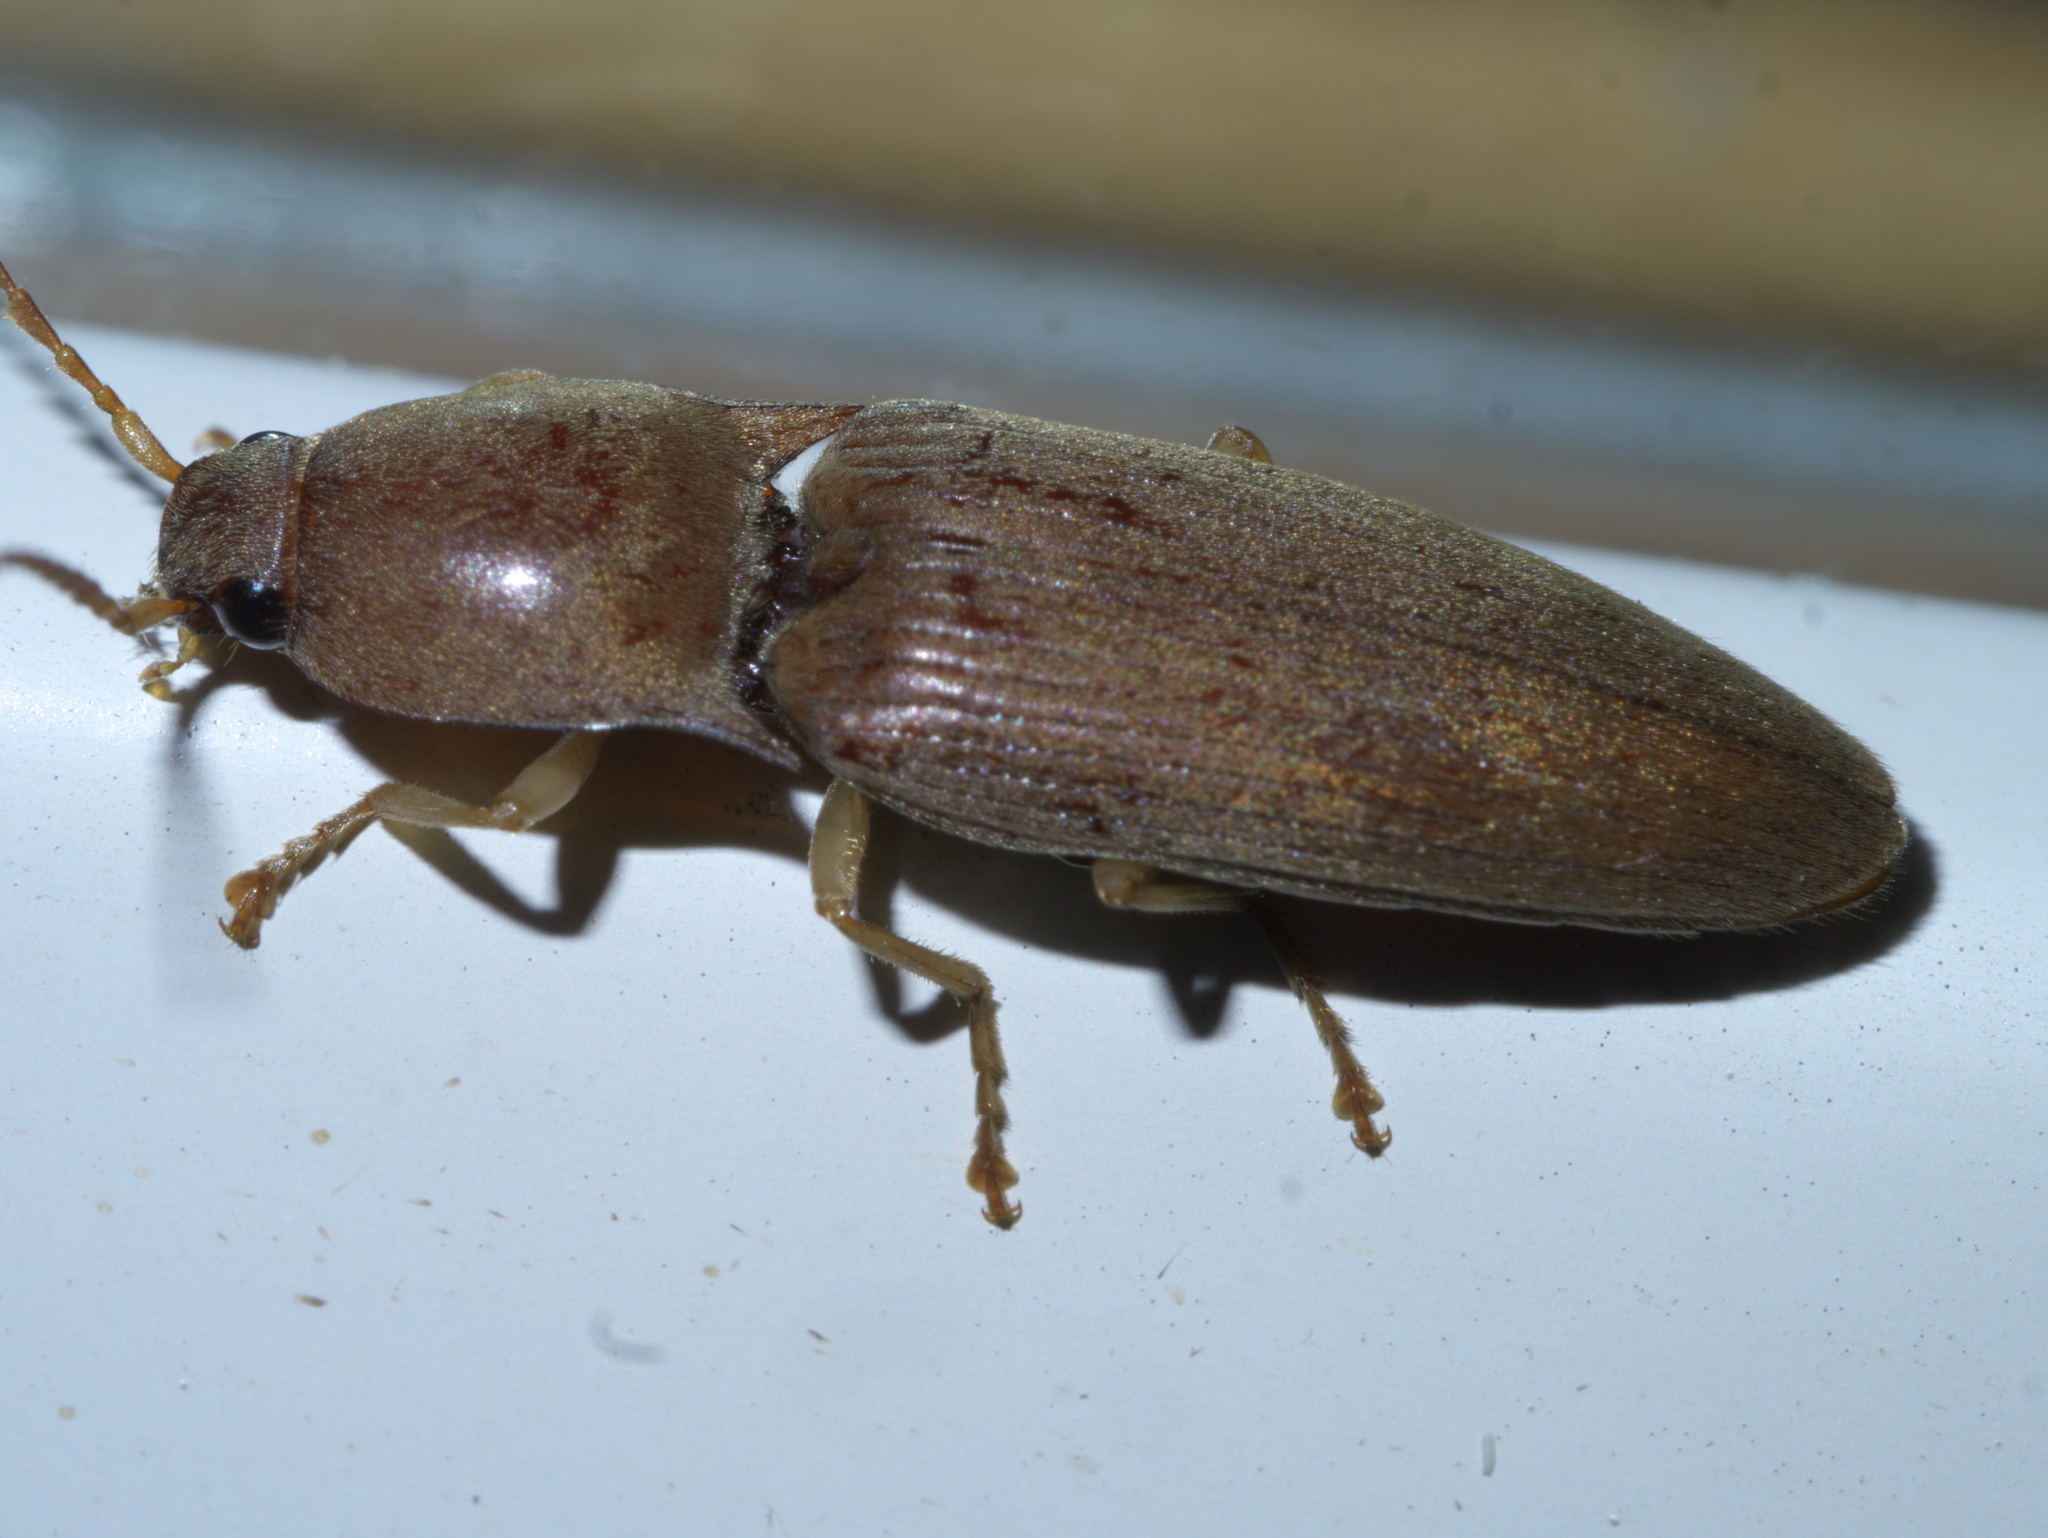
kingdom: Animalia
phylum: Arthropoda
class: Insecta
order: Coleoptera
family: Elateridae
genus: Monocrepidius
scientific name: Monocrepidius lividus
